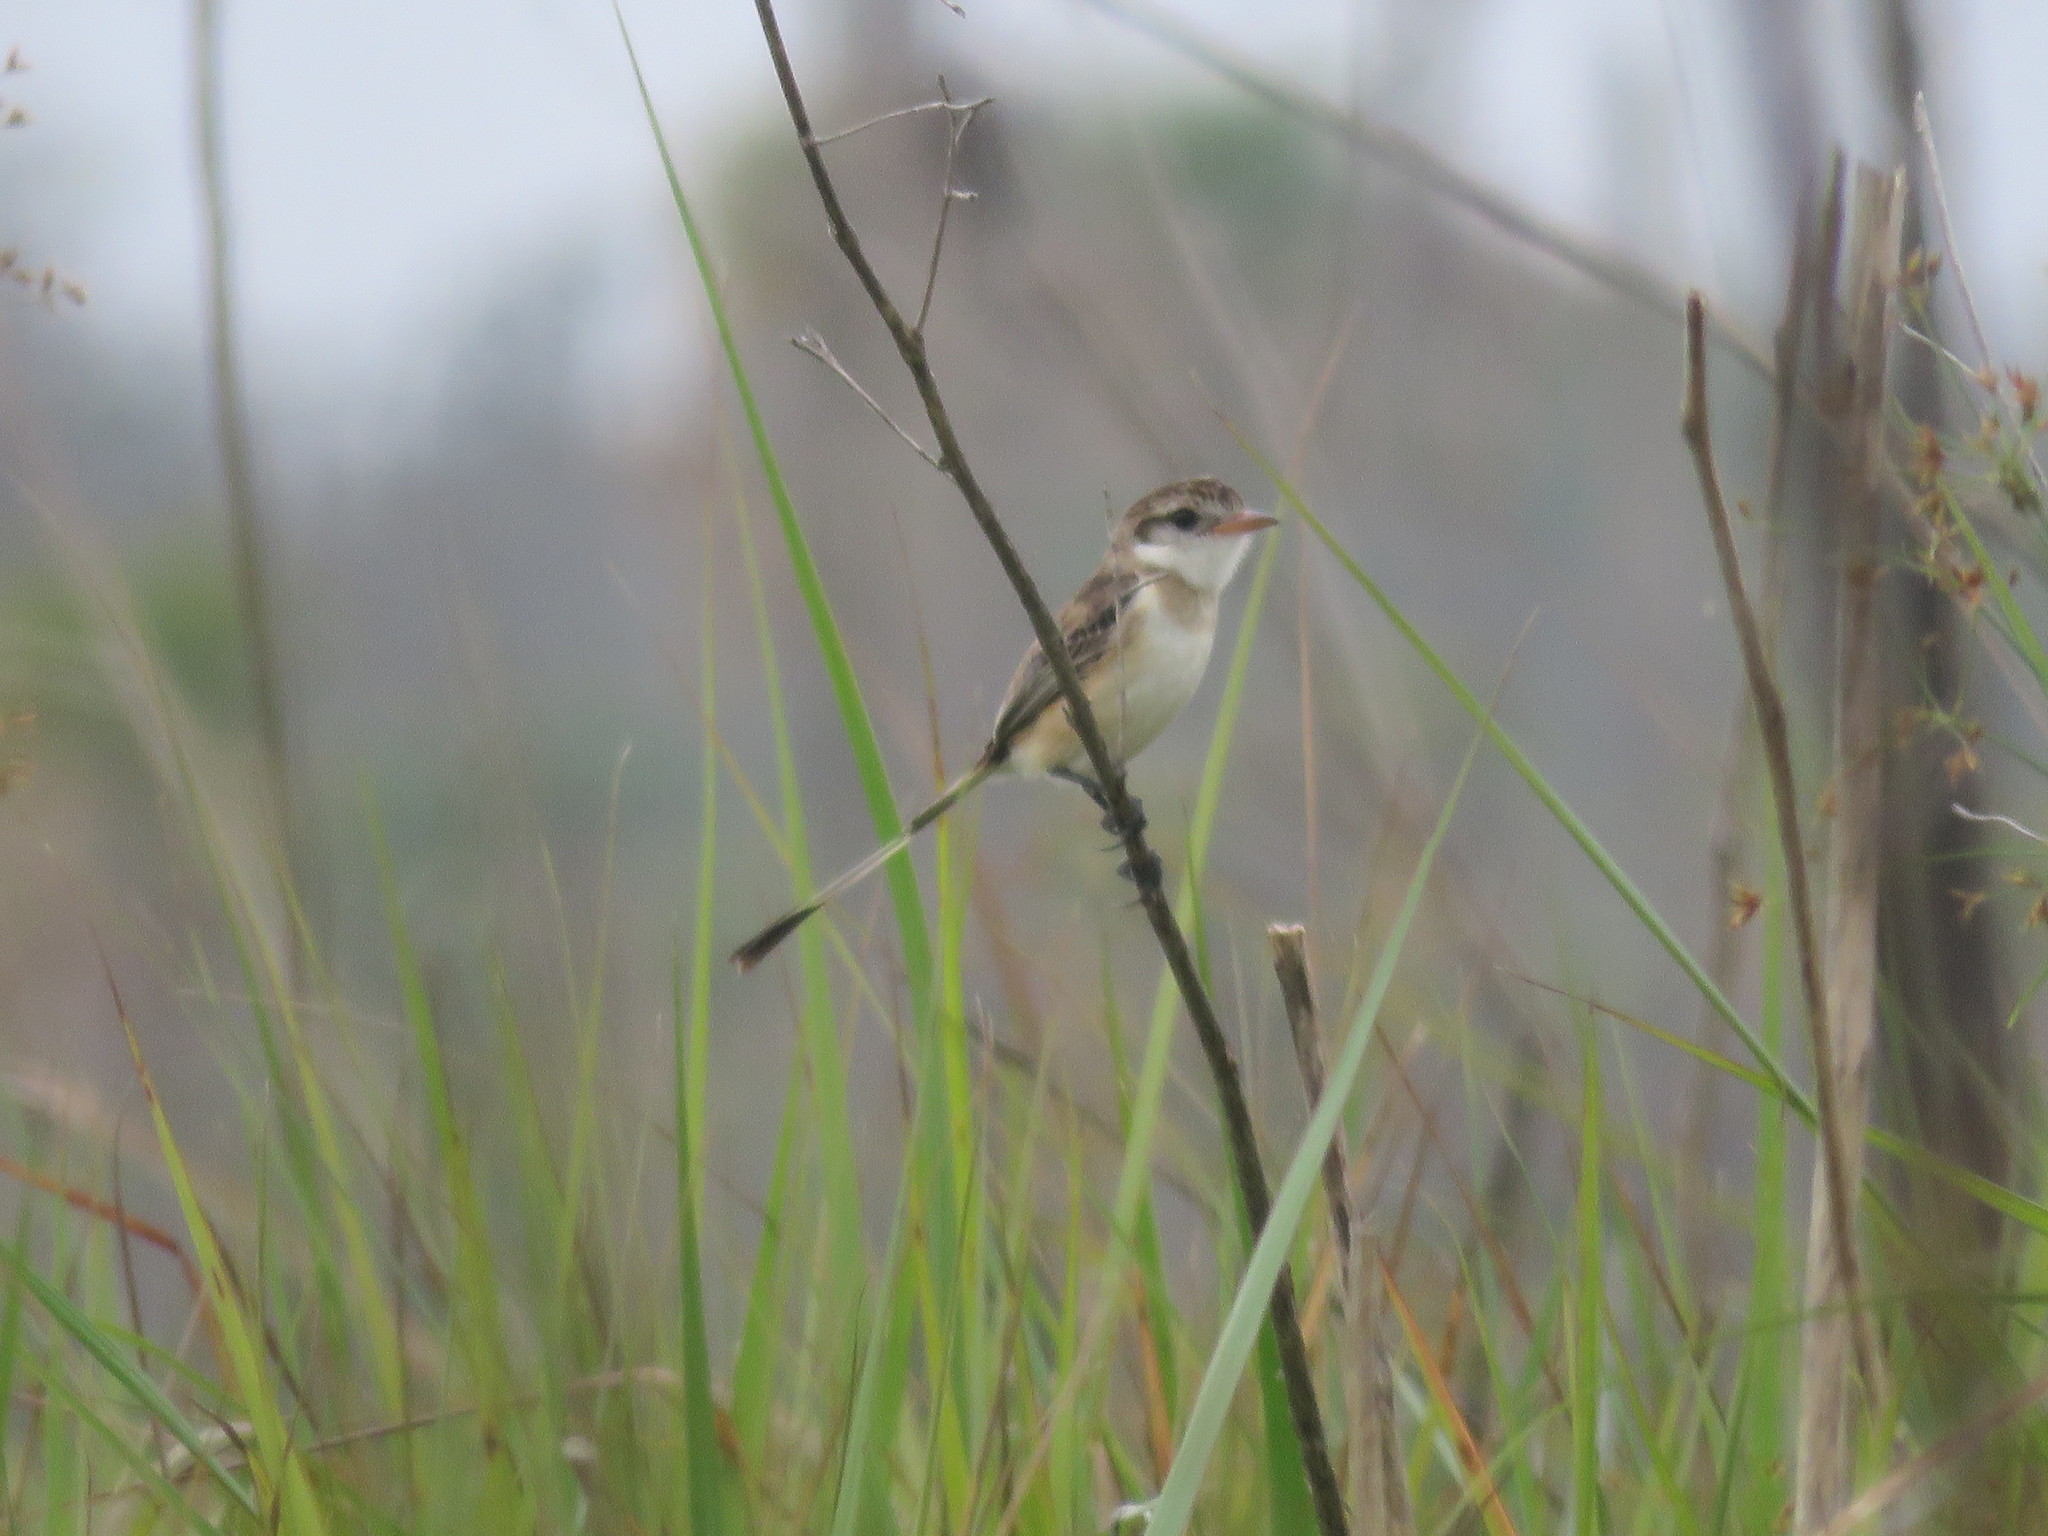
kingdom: Animalia
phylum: Chordata
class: Aves
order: Passeriformes
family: Tyrannidae
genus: Alectrurus
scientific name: Alectrurus risora
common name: Strange-tailed tyrant
